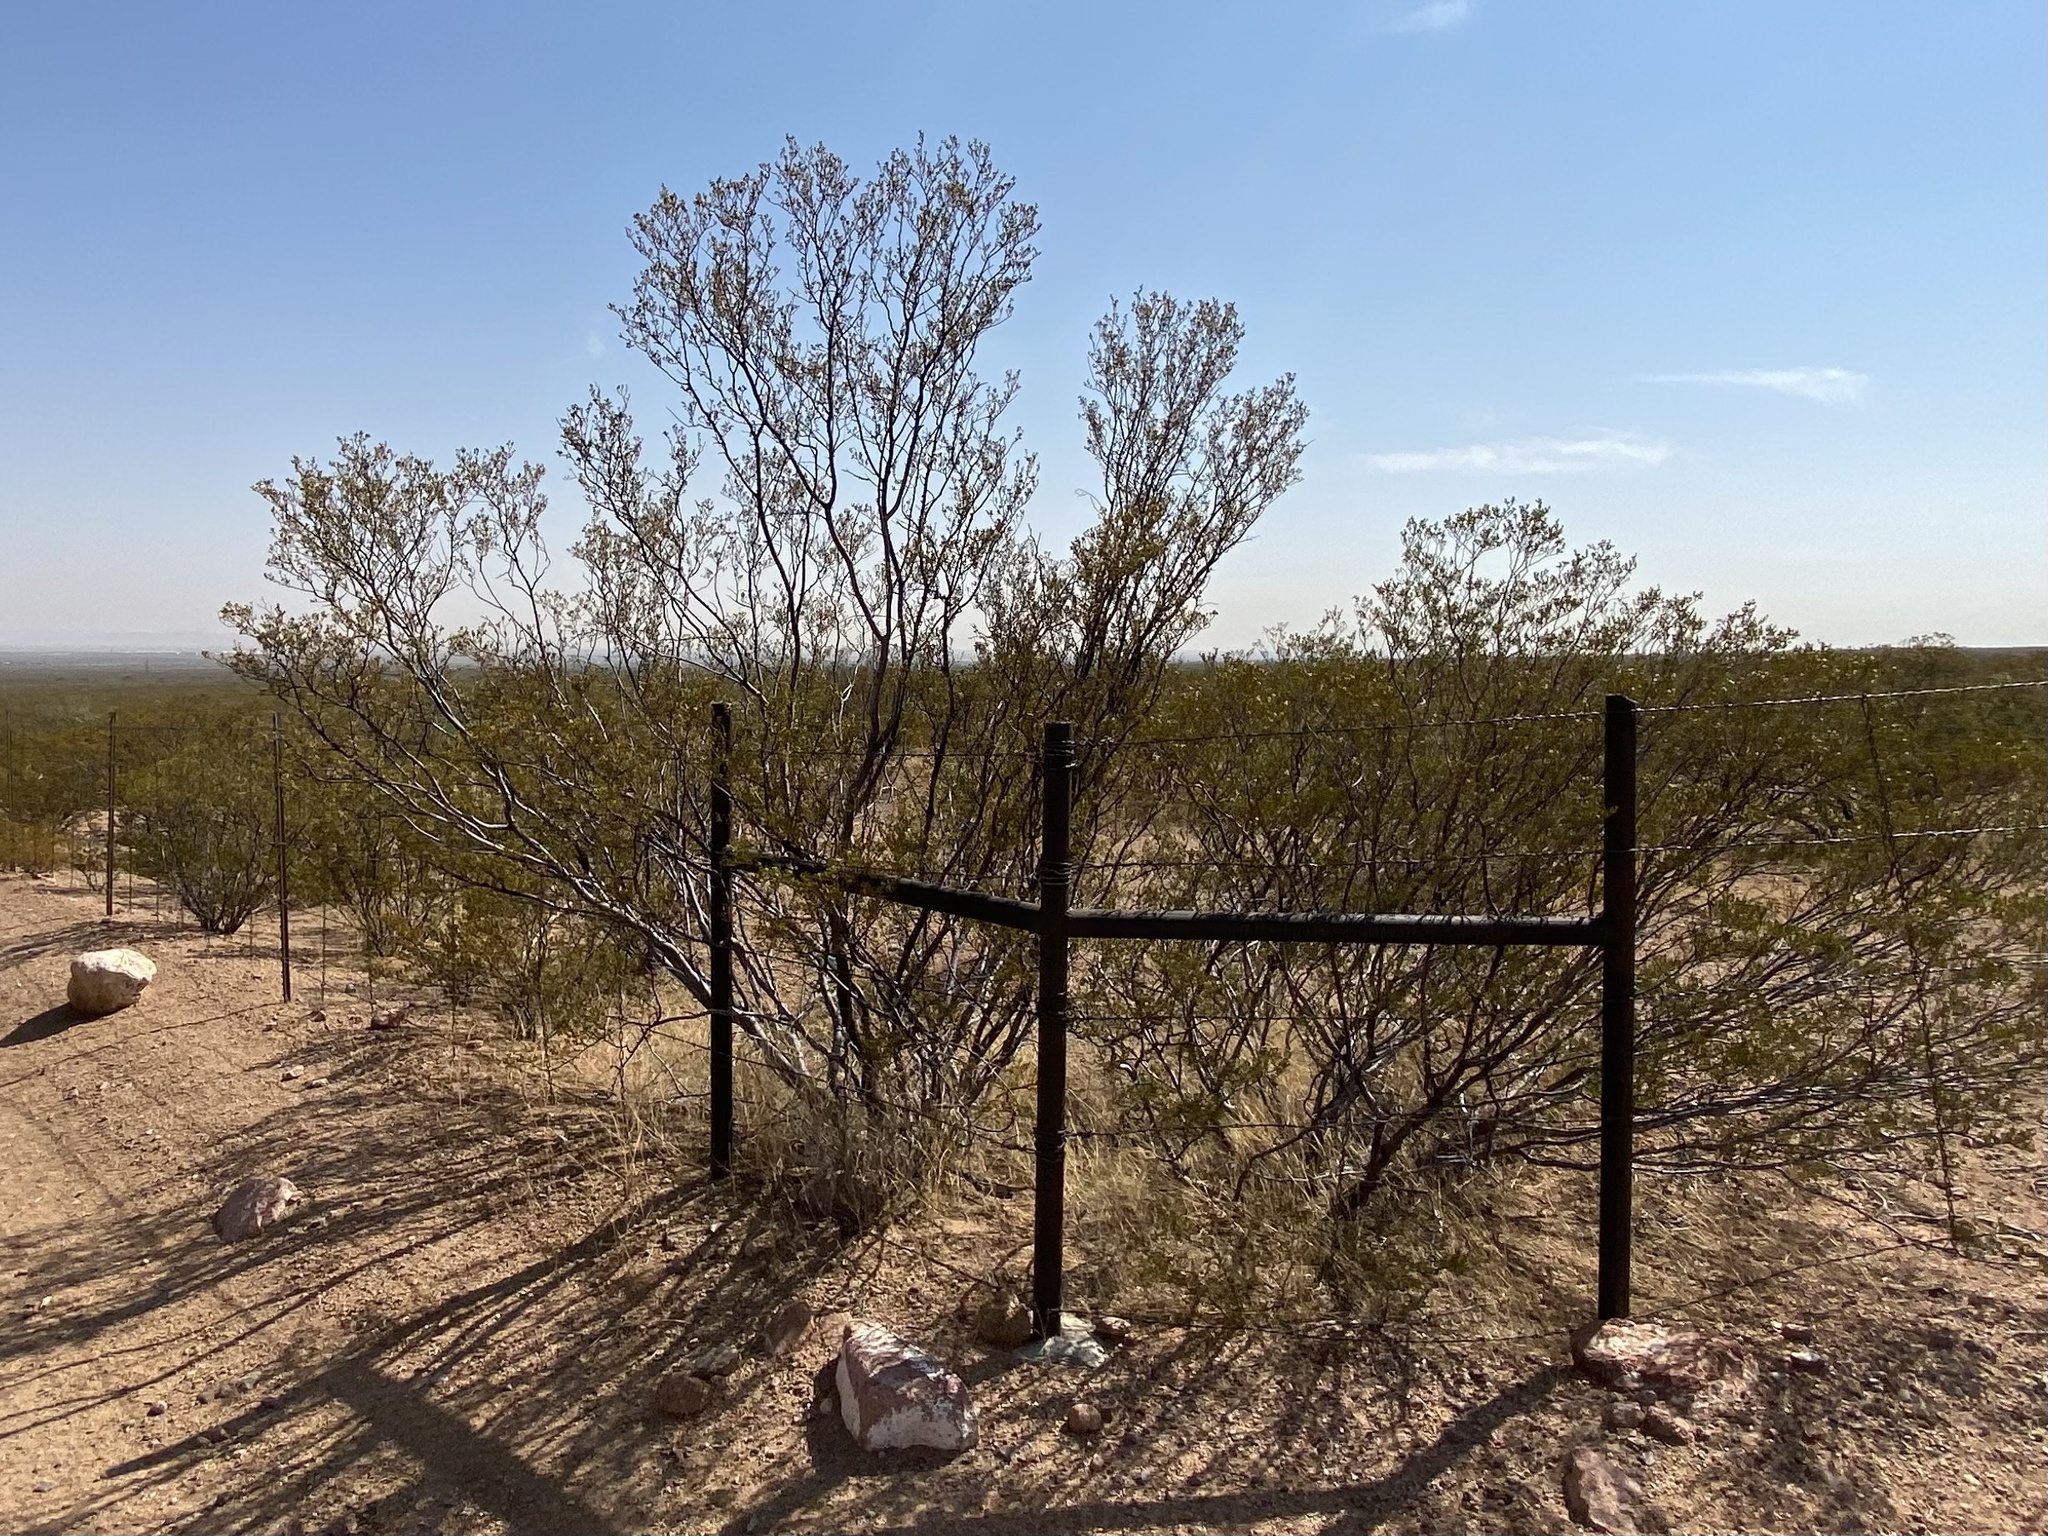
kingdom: Plantae
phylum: Tracheophyta
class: Magnoliopsida
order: Zygophyllales
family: Zygophyllaceae
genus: Larrea
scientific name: Larrea tridentata
